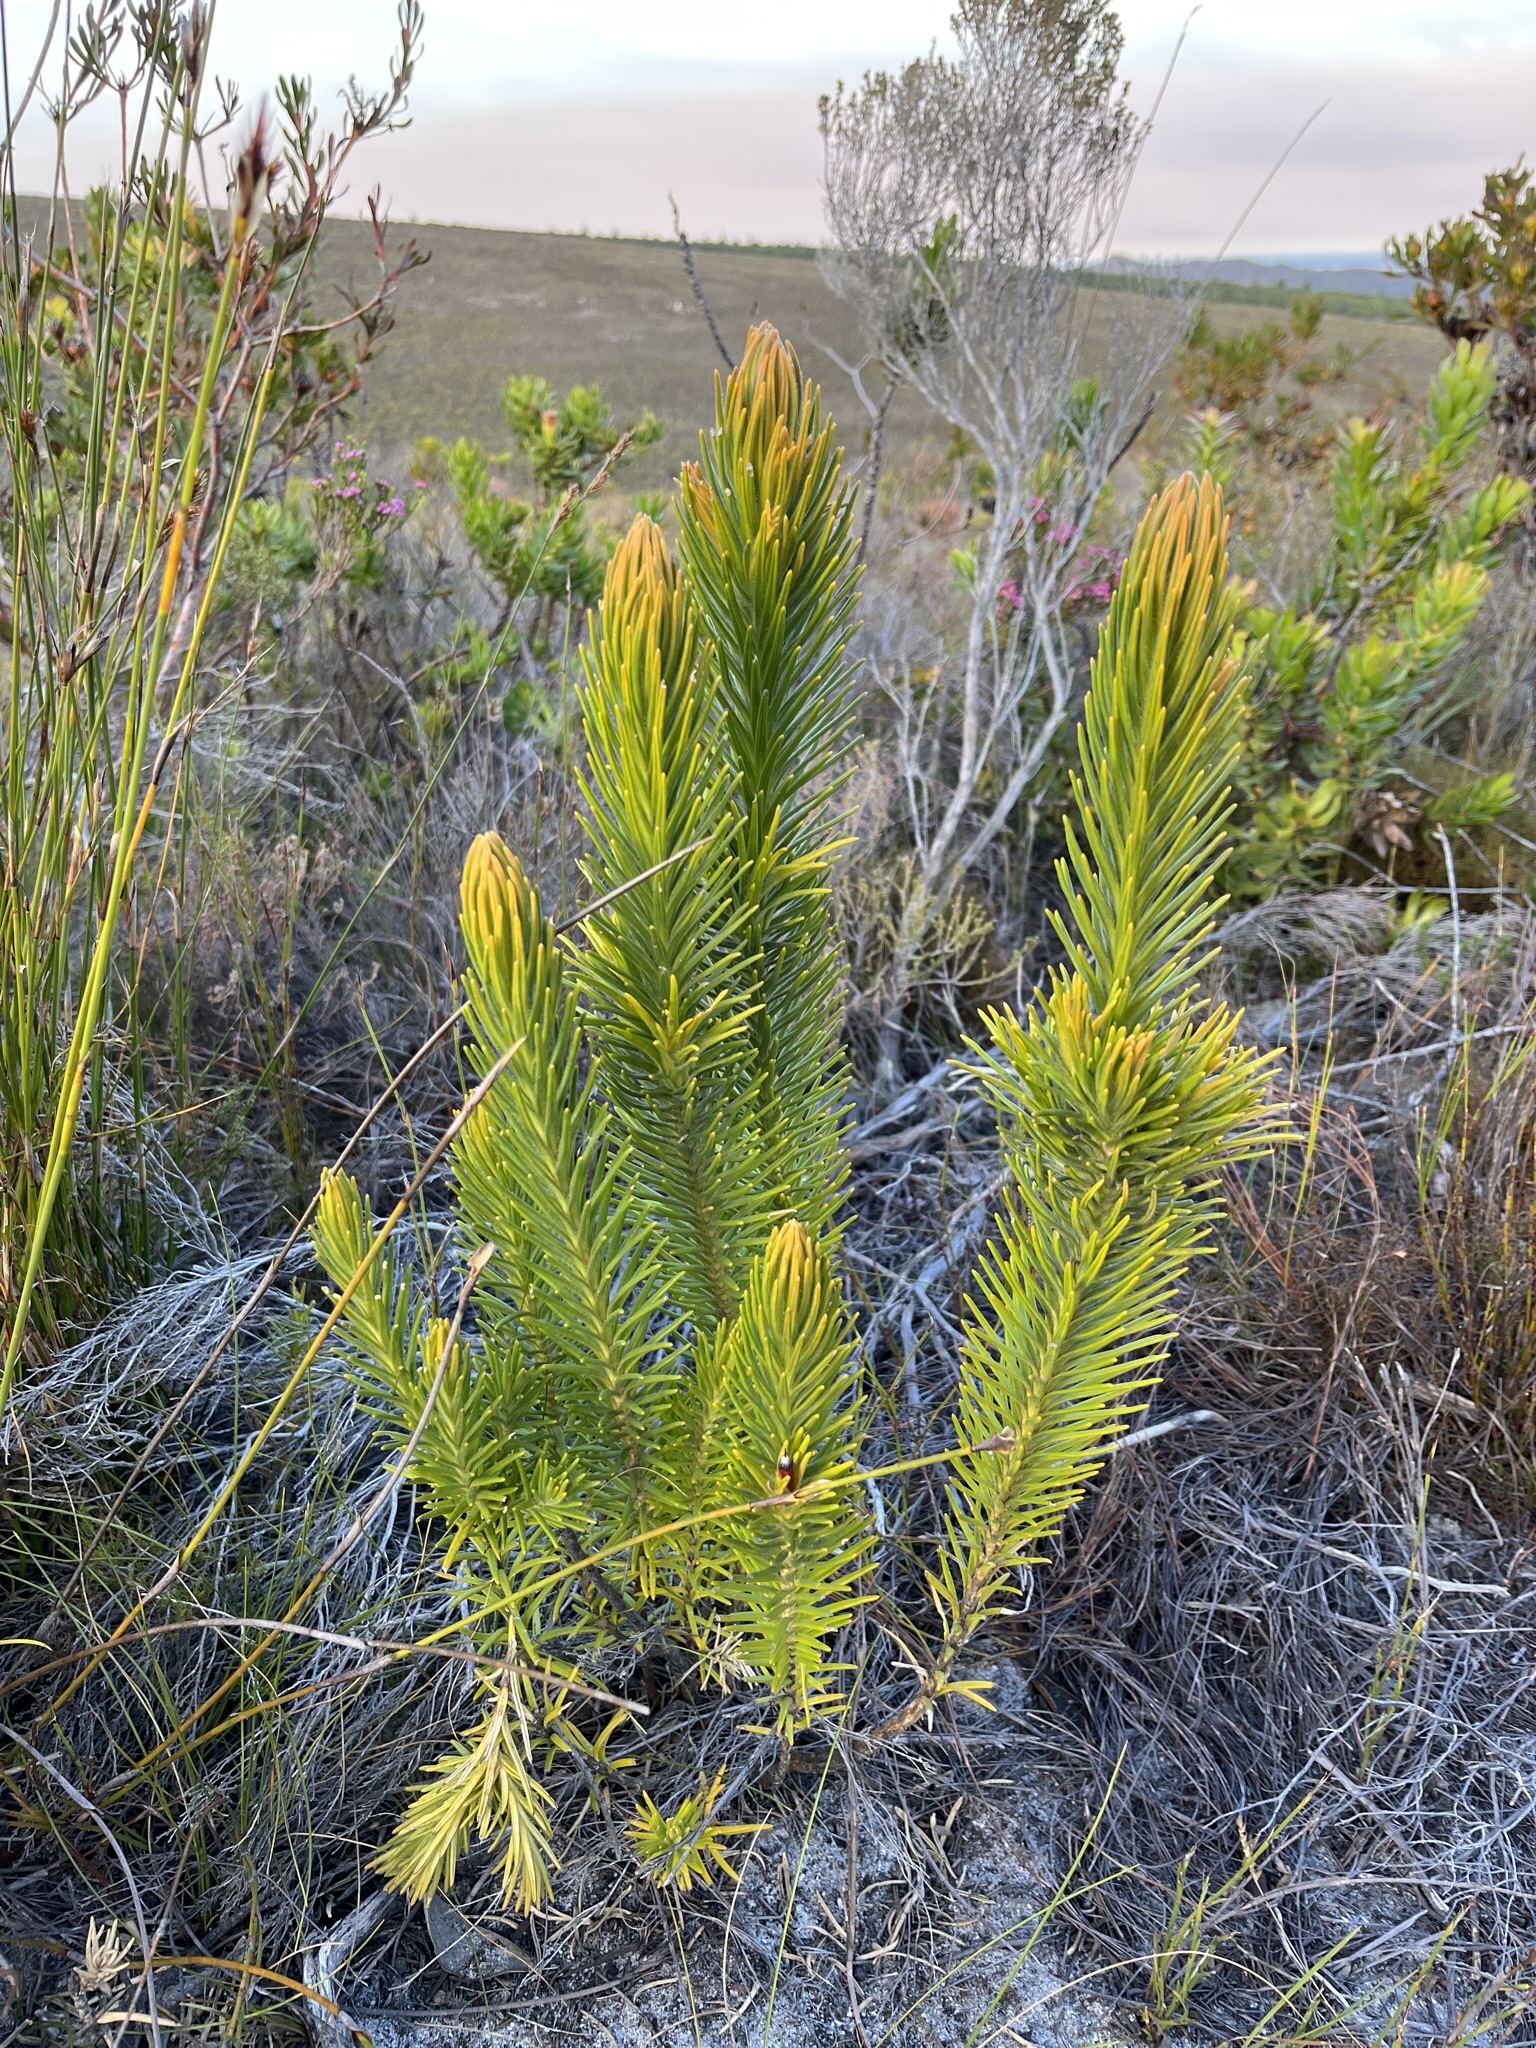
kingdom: Plantae
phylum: Tracheophyta
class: Magnoliopsida
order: Lamiales
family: Stilbaceae
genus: Retzia
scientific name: Retzia capensis
